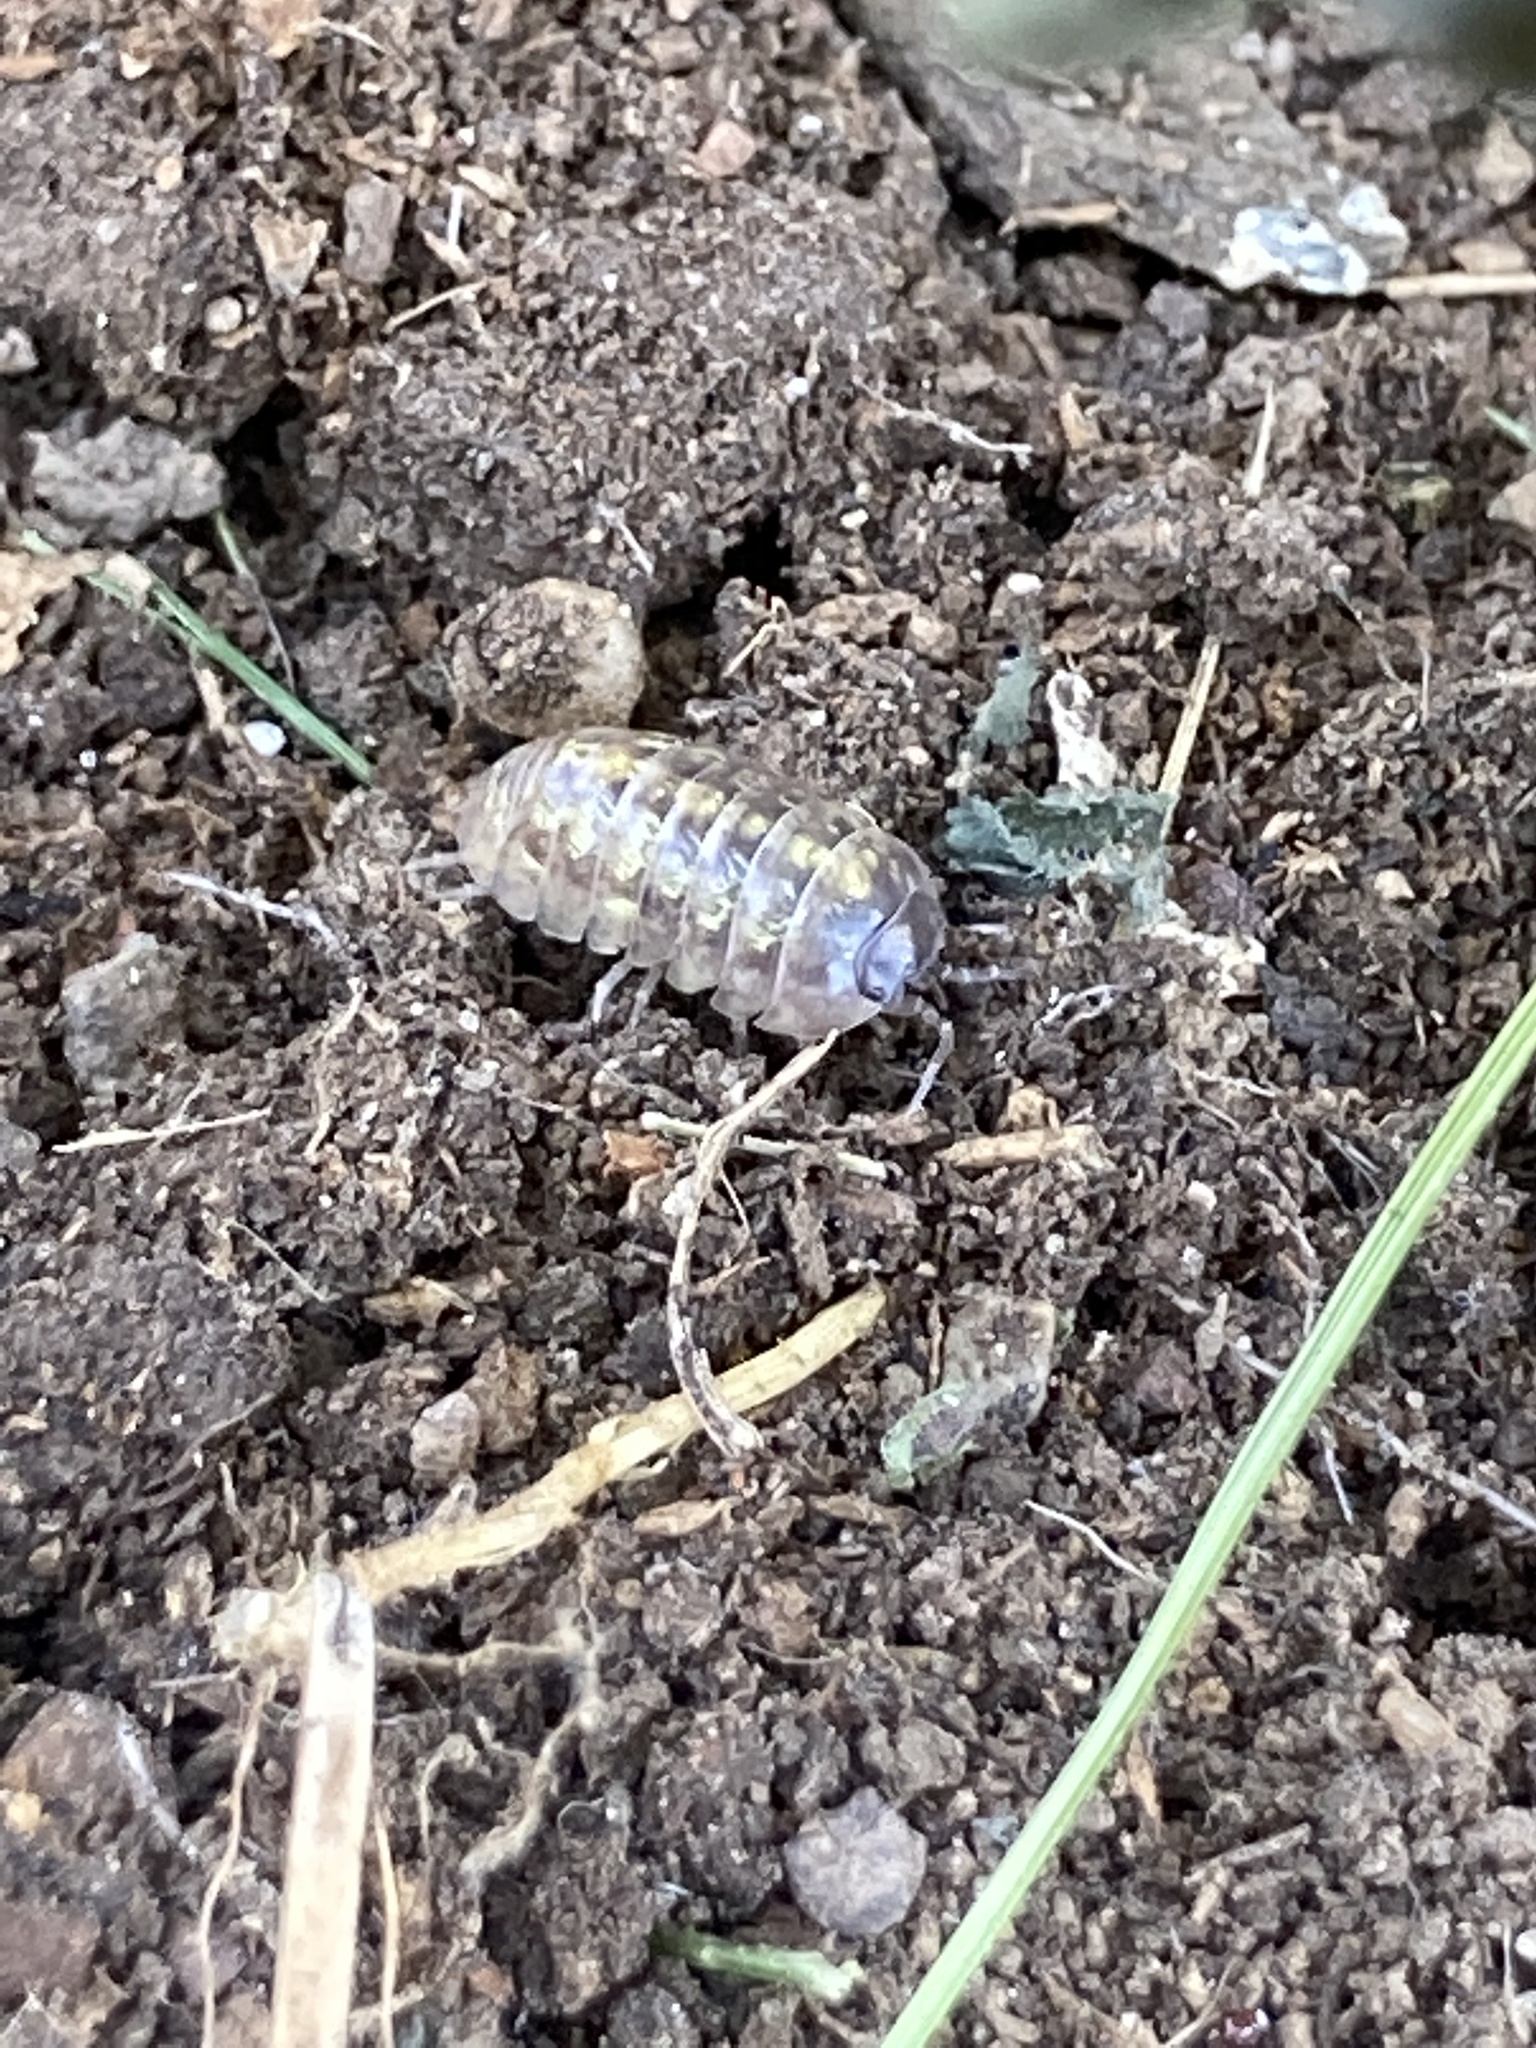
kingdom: Animalia
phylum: Arthropoda
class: Malacostraca
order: Isopoda
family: Armadillidiidae
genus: Armadillidium
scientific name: Armadillidium vulgare
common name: Common pill woodlouse
